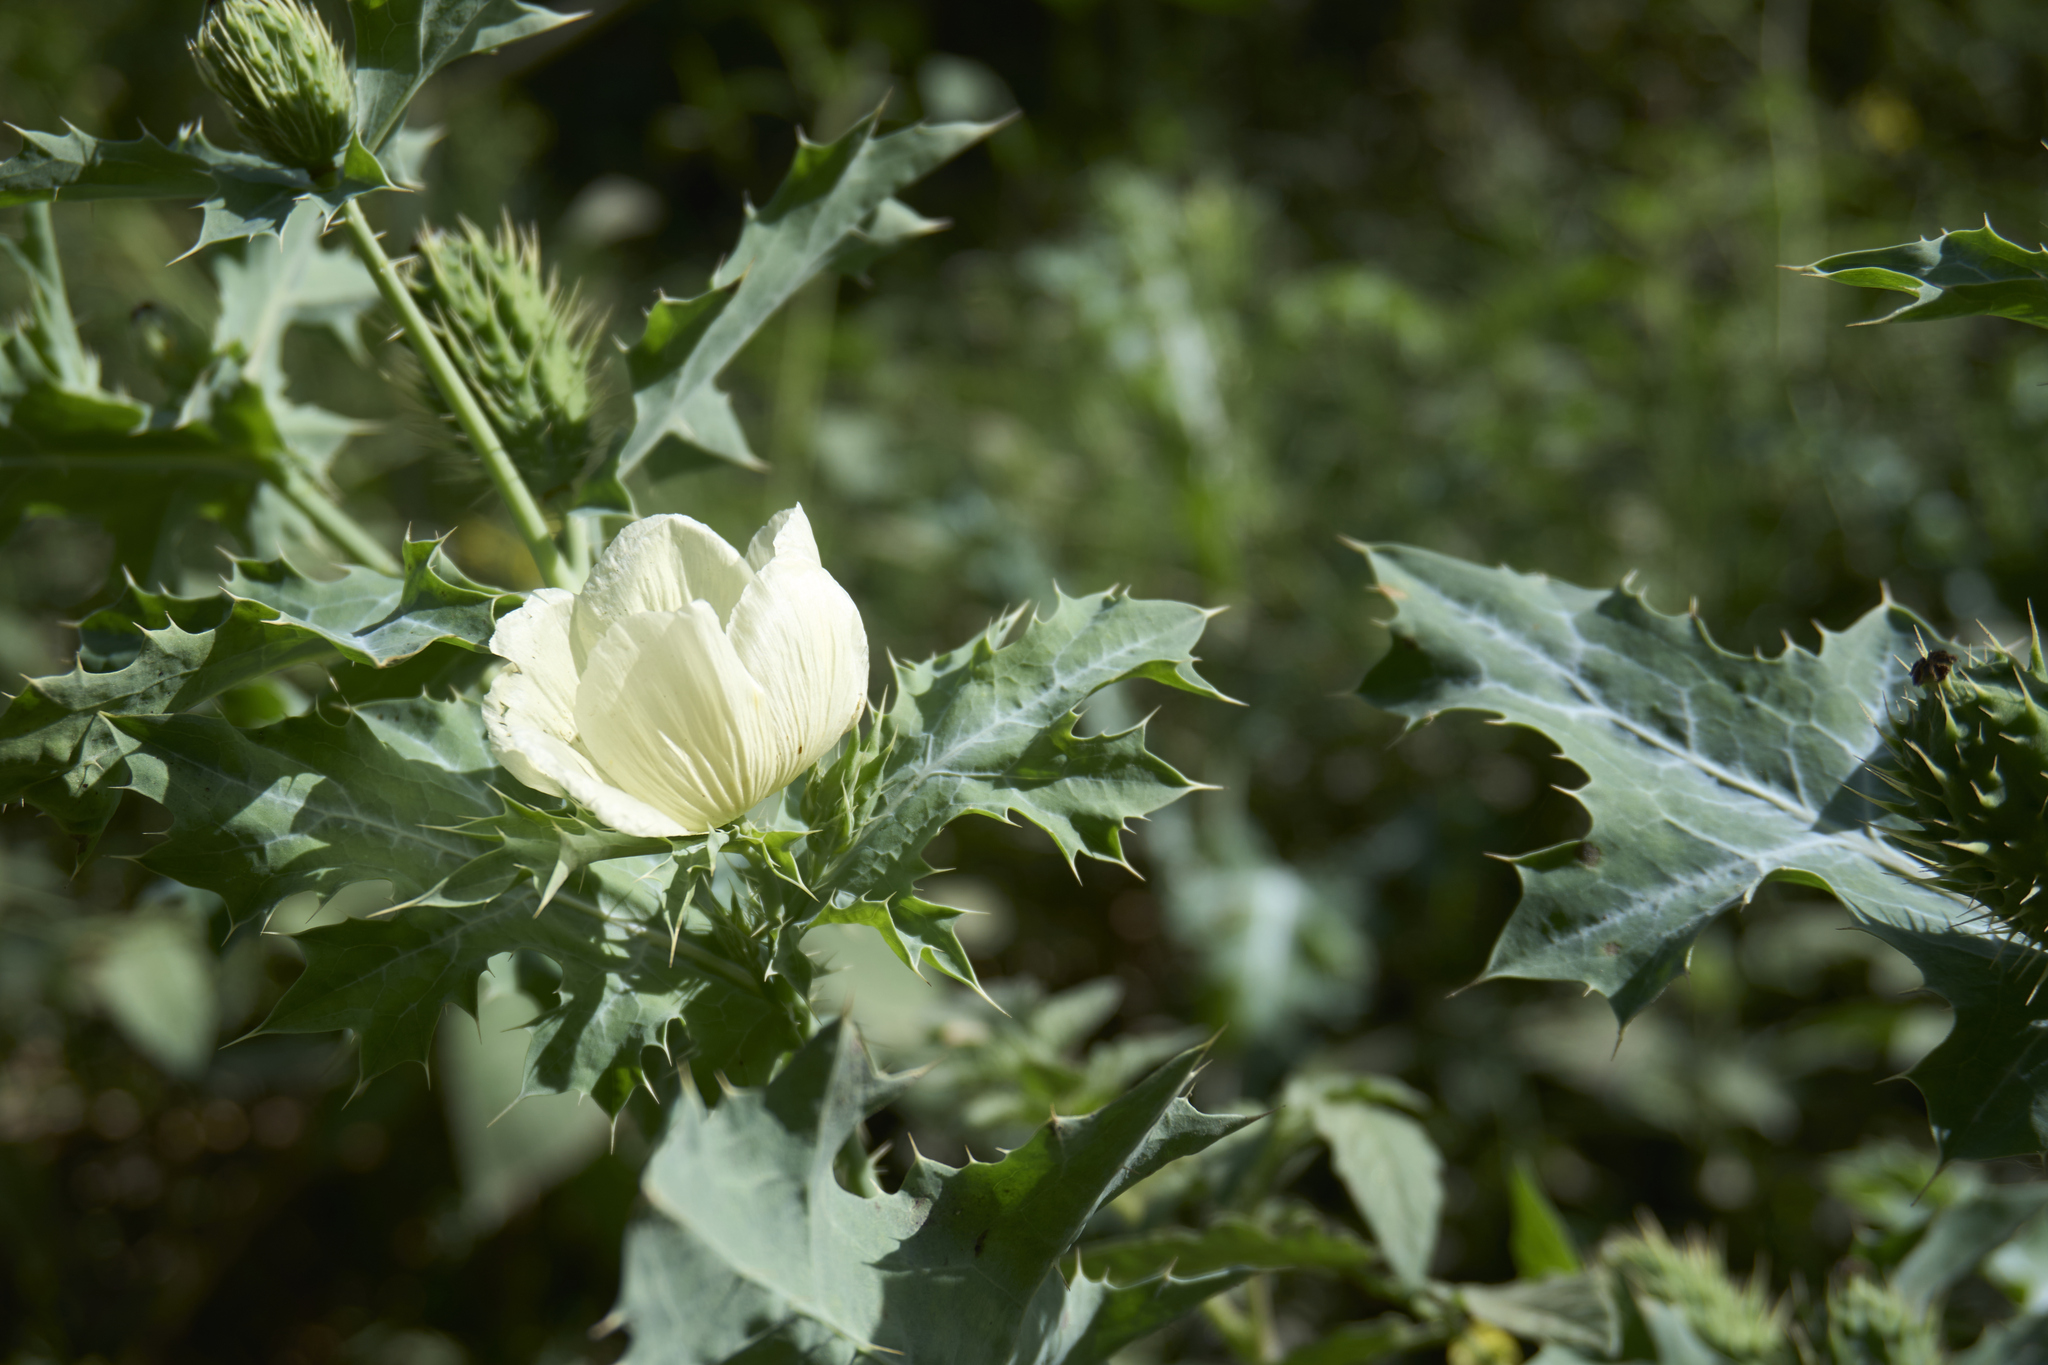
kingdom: Plantae
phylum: Tracheophyta
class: Magnoliopsida
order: Ranunculales
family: Papaveraceae
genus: Argemone
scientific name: Argemone ochroleuca
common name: White-flower mexican-poppy
